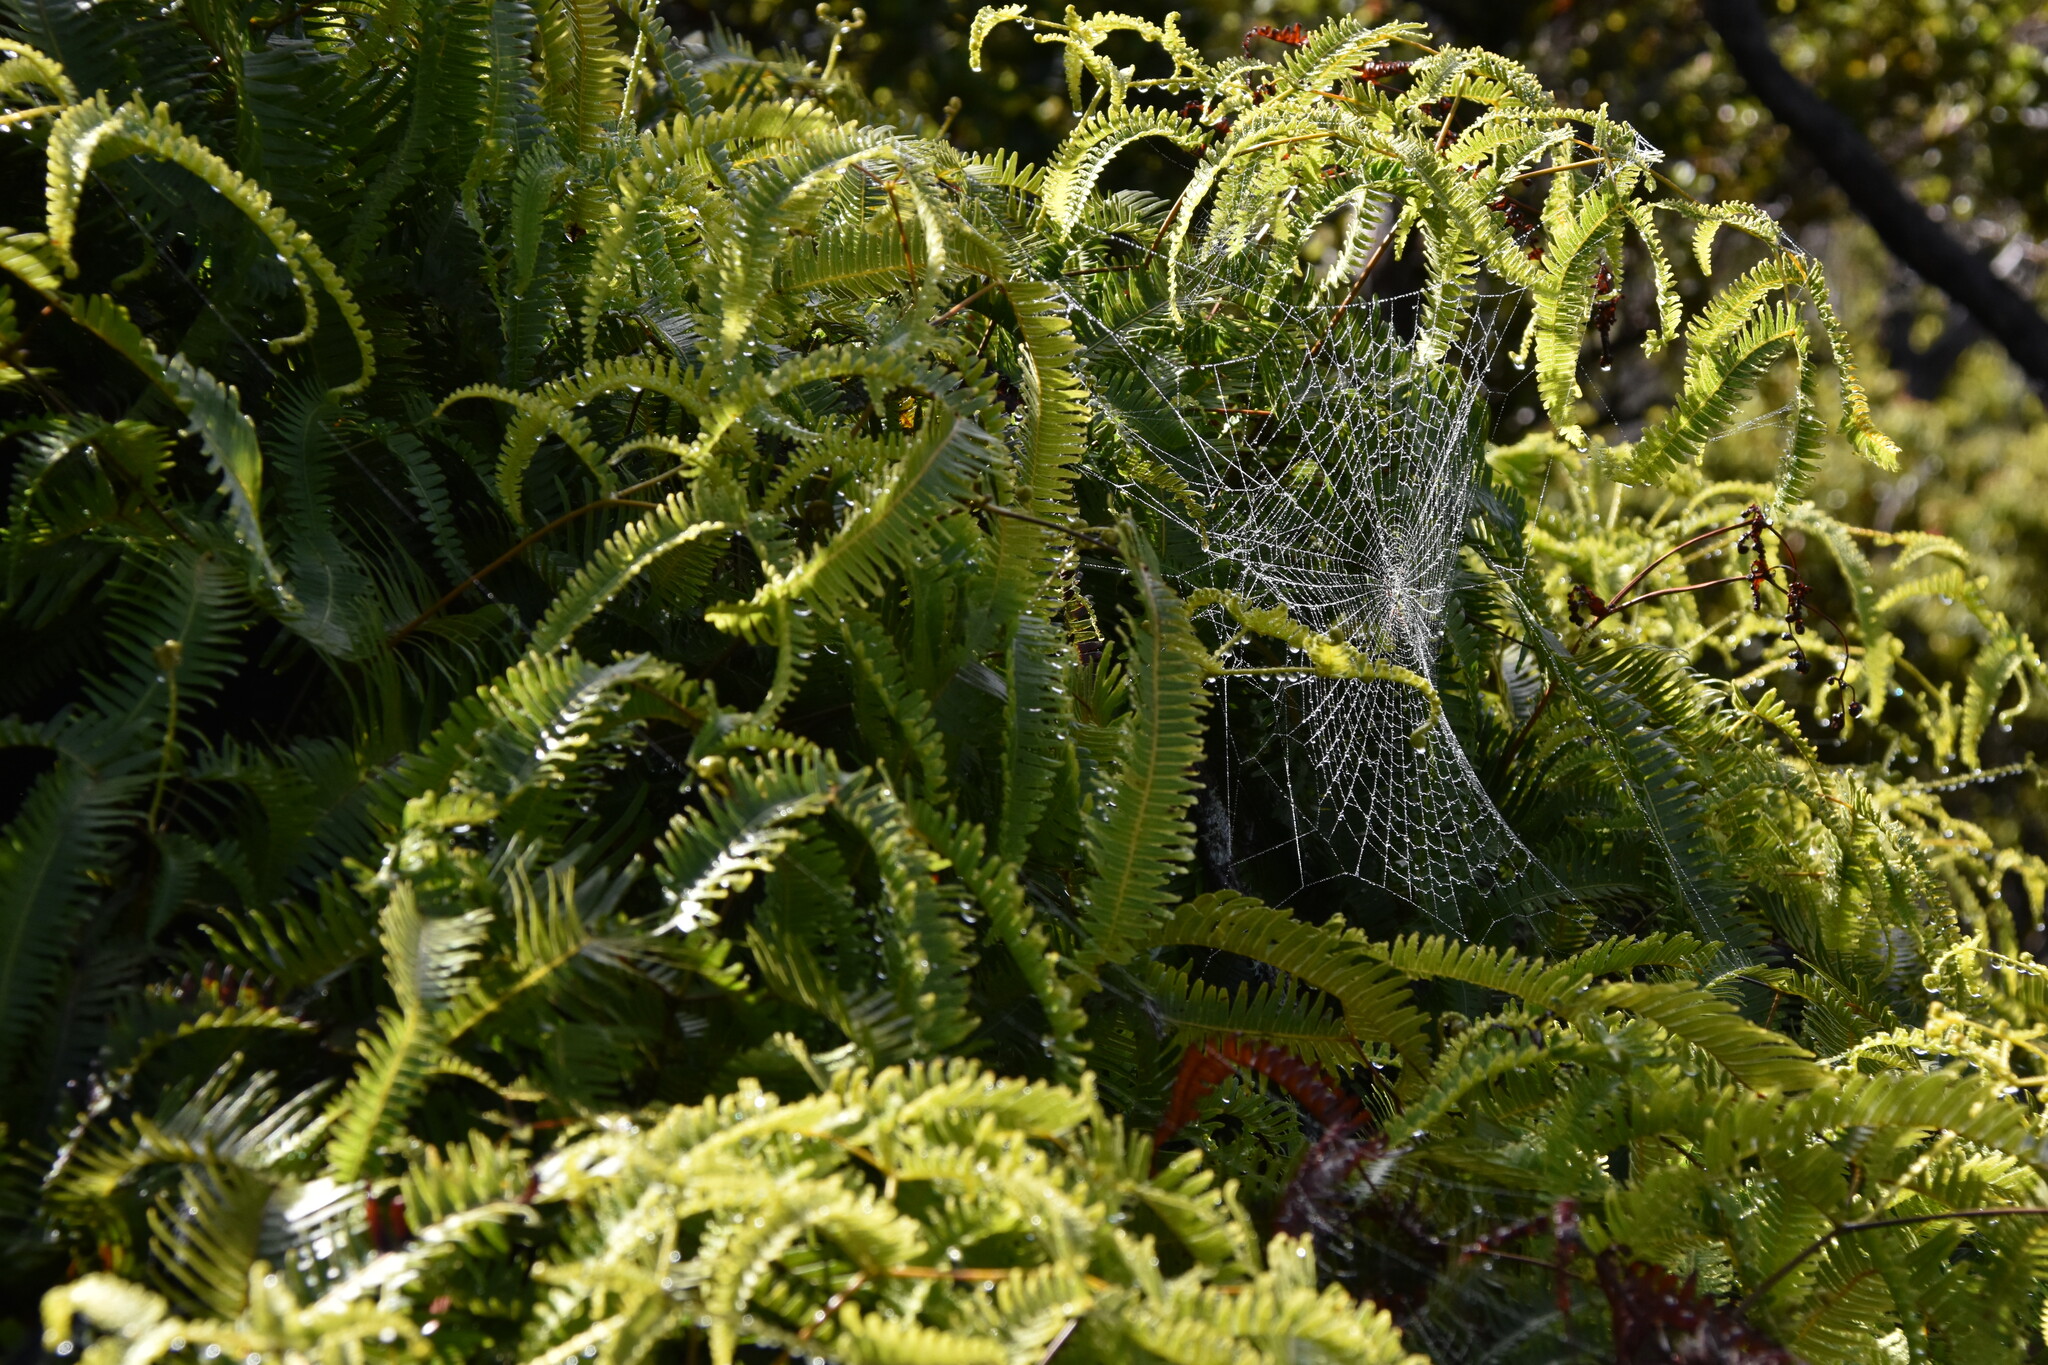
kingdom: Plantae
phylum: Tracheophyta
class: Polypodiopsida
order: Gleicheniales
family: Gleicheniaceae
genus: Dicranopteris
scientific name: Dicranopteris linearis
